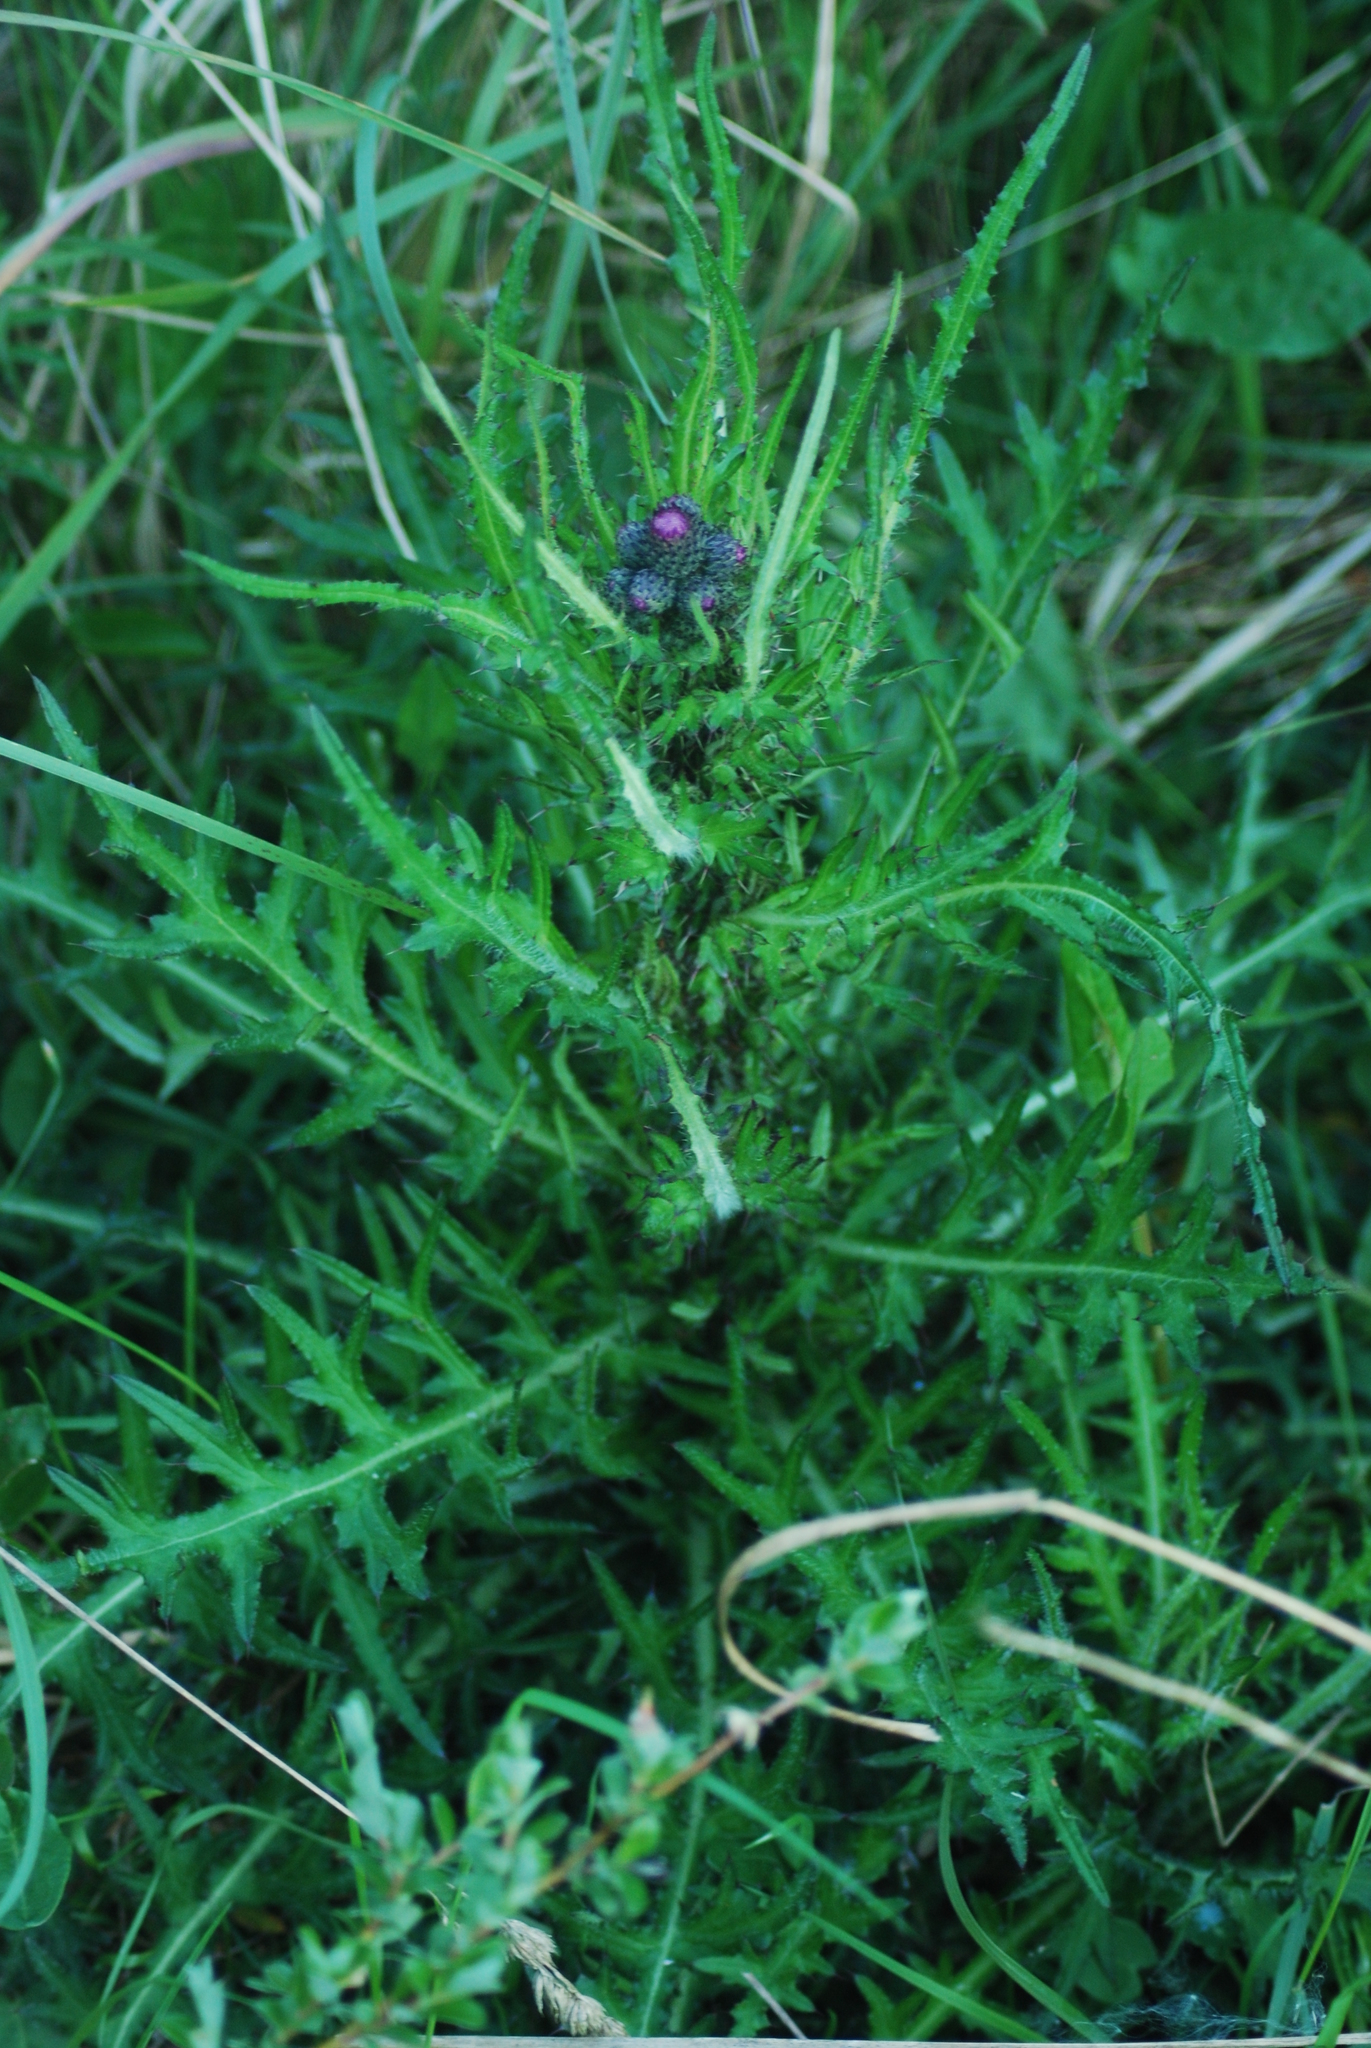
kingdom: Plantae
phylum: Tracheophyta
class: Magnoliopsida
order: Asterales
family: Asteraceae
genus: Cirsium
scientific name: Cirsium palustre
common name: Marsh thistle
